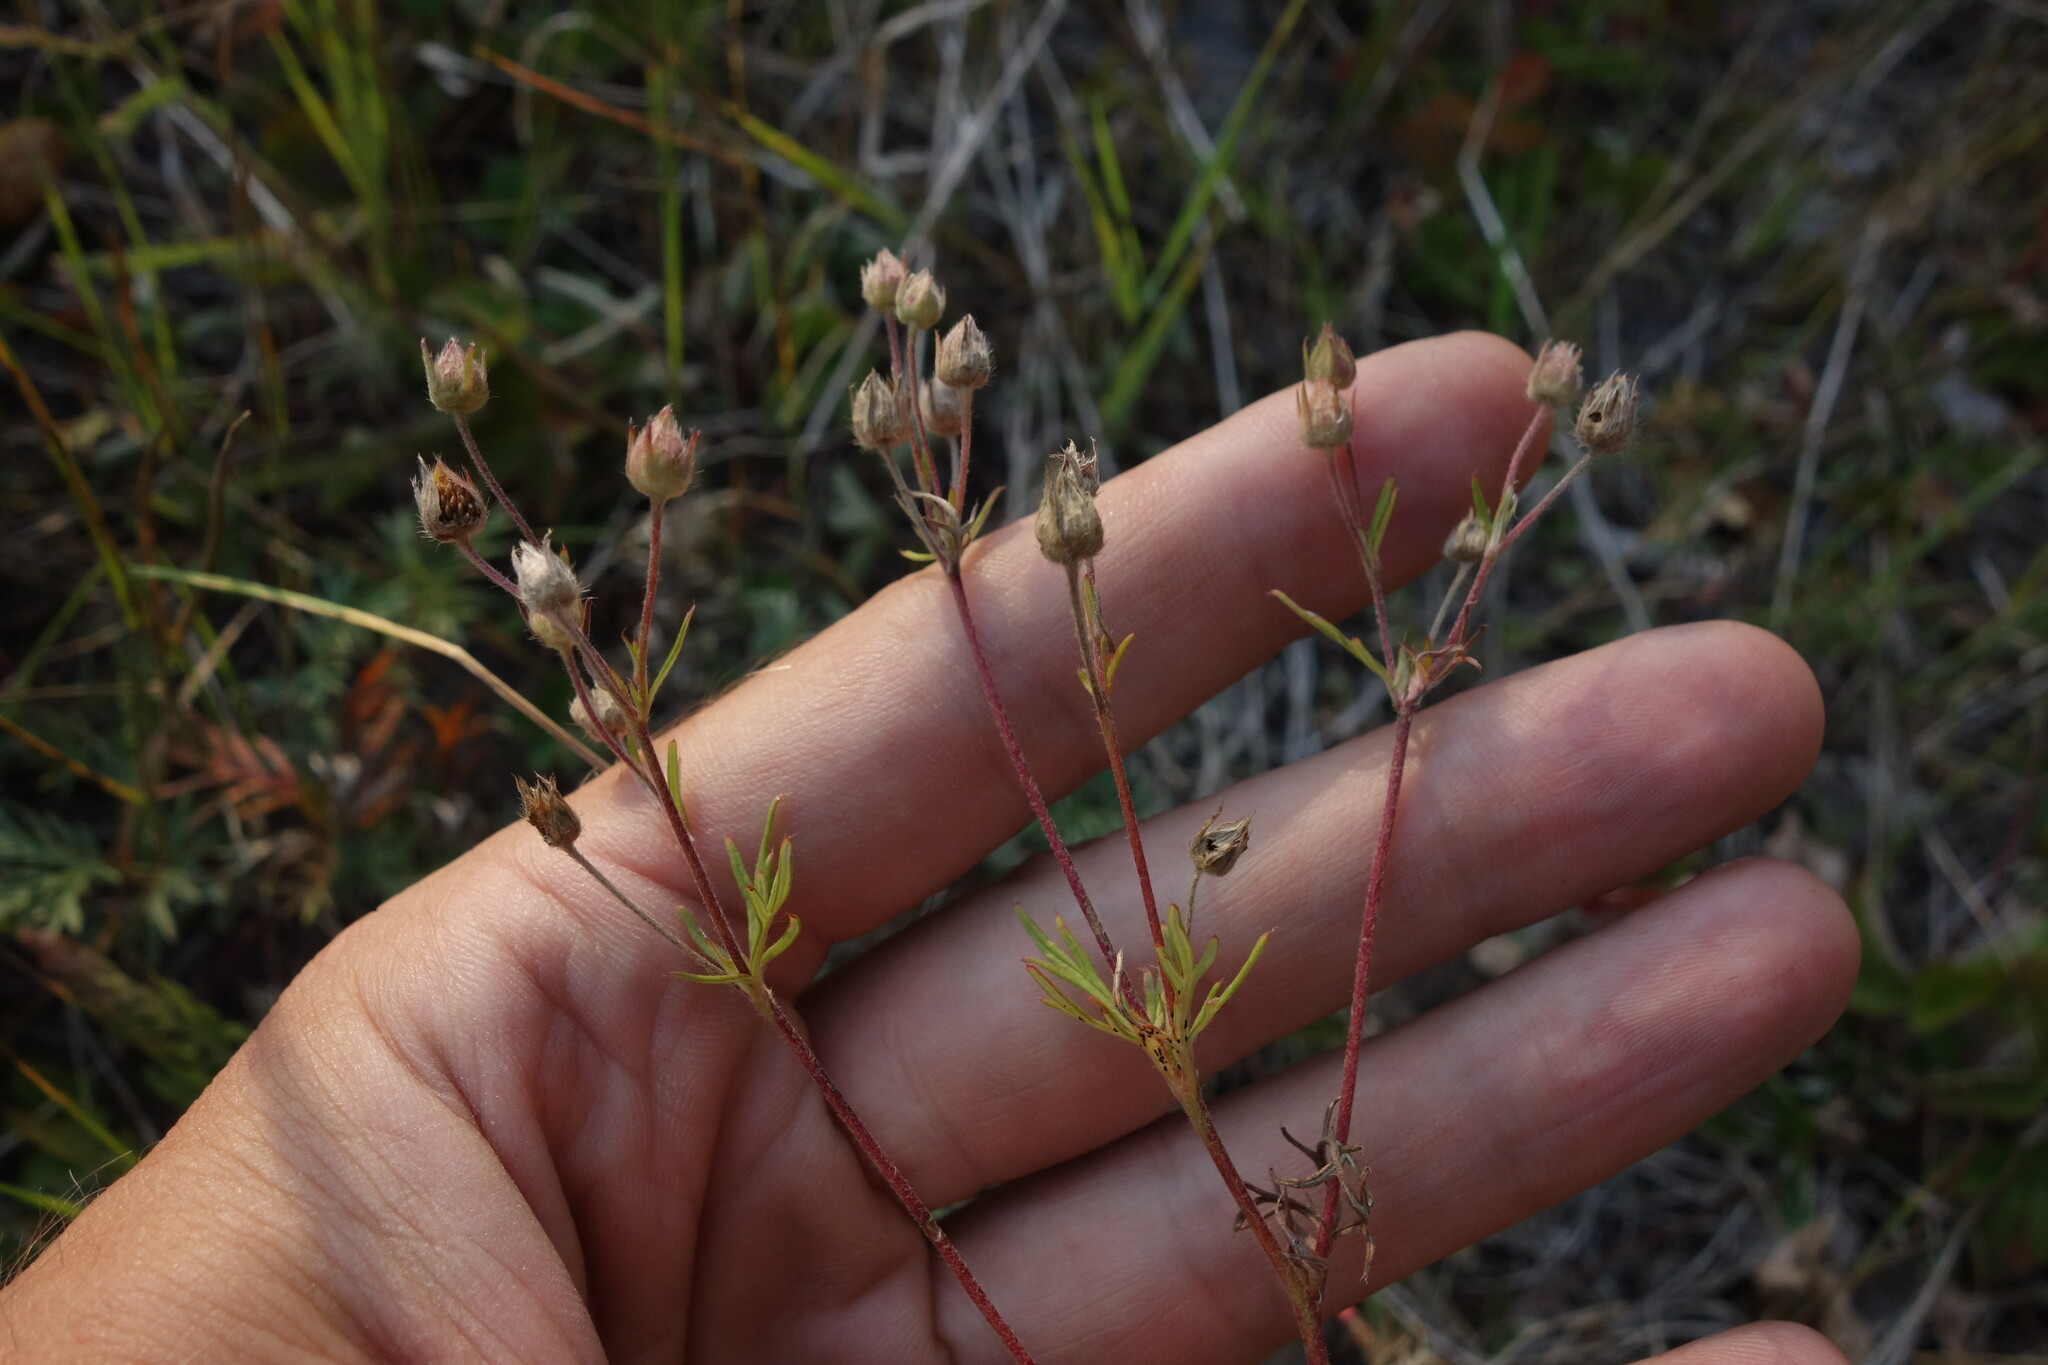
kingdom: Plantae
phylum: Tracheophyta
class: Magnoliopsida
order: Rosales
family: Rosaceae
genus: Potentilla
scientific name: Potentilla tergemina
